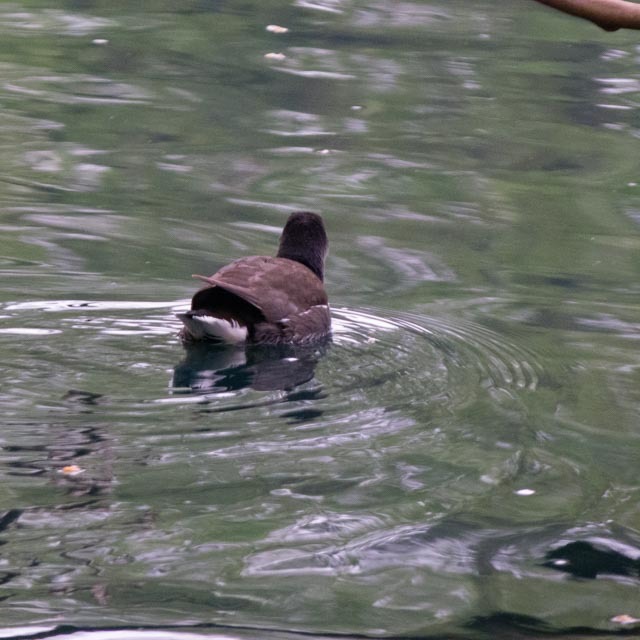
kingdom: Animalia
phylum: Chordata
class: Aves
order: Gruiformes
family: Rallidae
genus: Gallinula
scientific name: Gallinula chloropus
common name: Common moorhen
